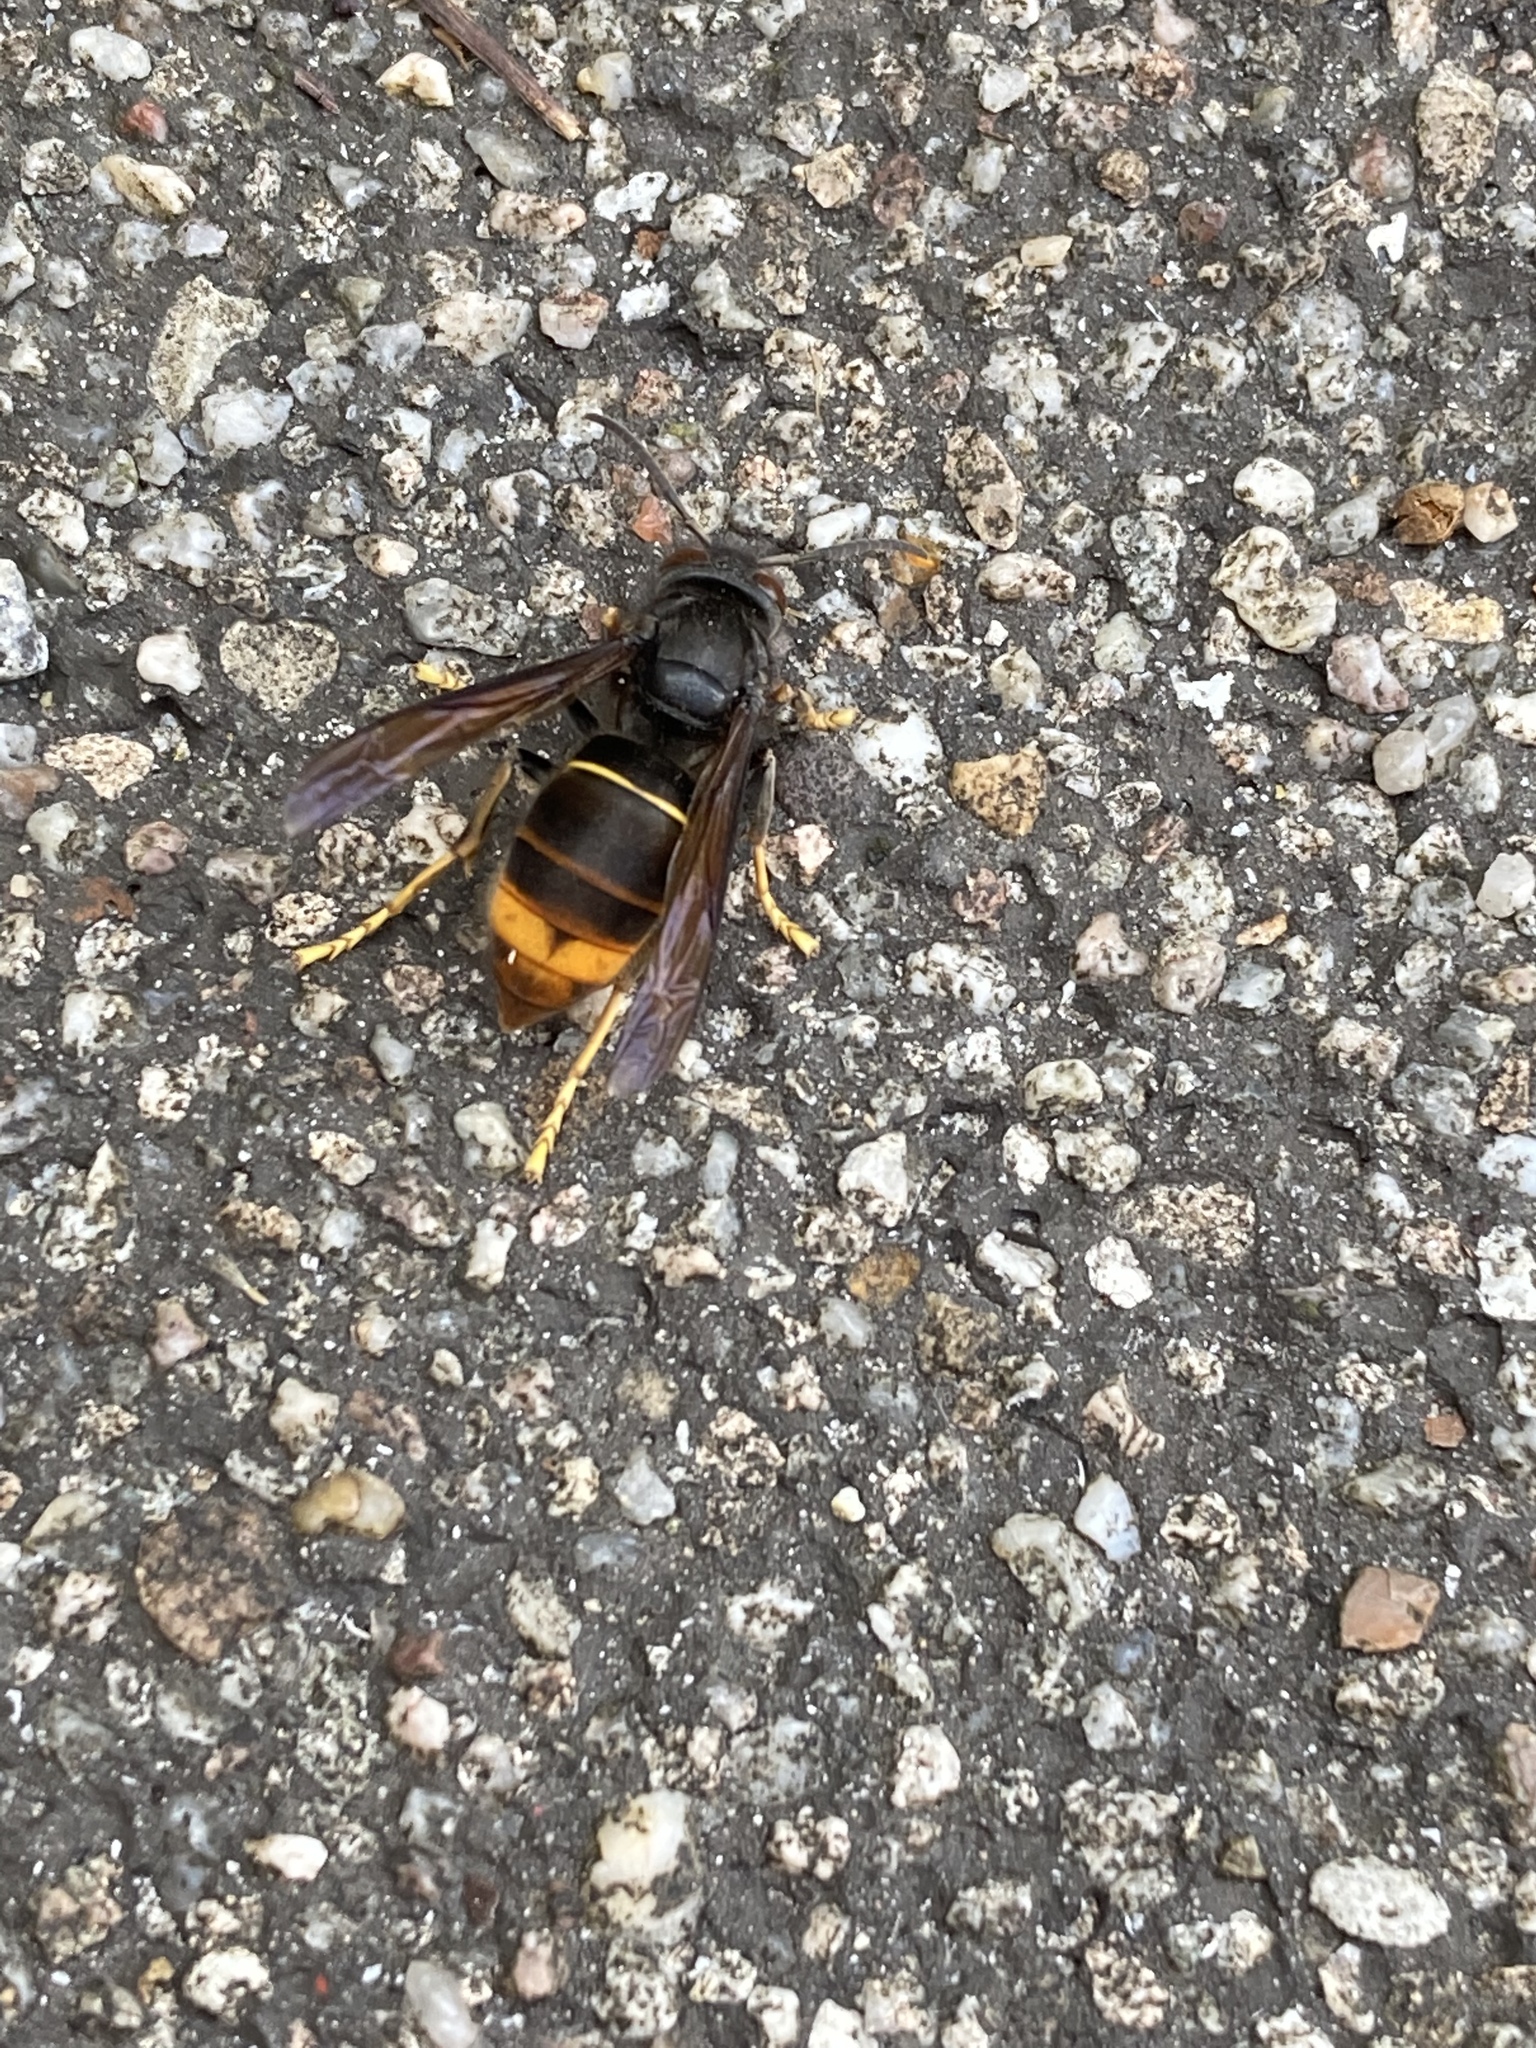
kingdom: Animalia
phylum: Arthropoda
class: Insecta
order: Hymenoptera
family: Vespidae
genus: Vespa
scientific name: Vespa velutina
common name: Asian hornet
